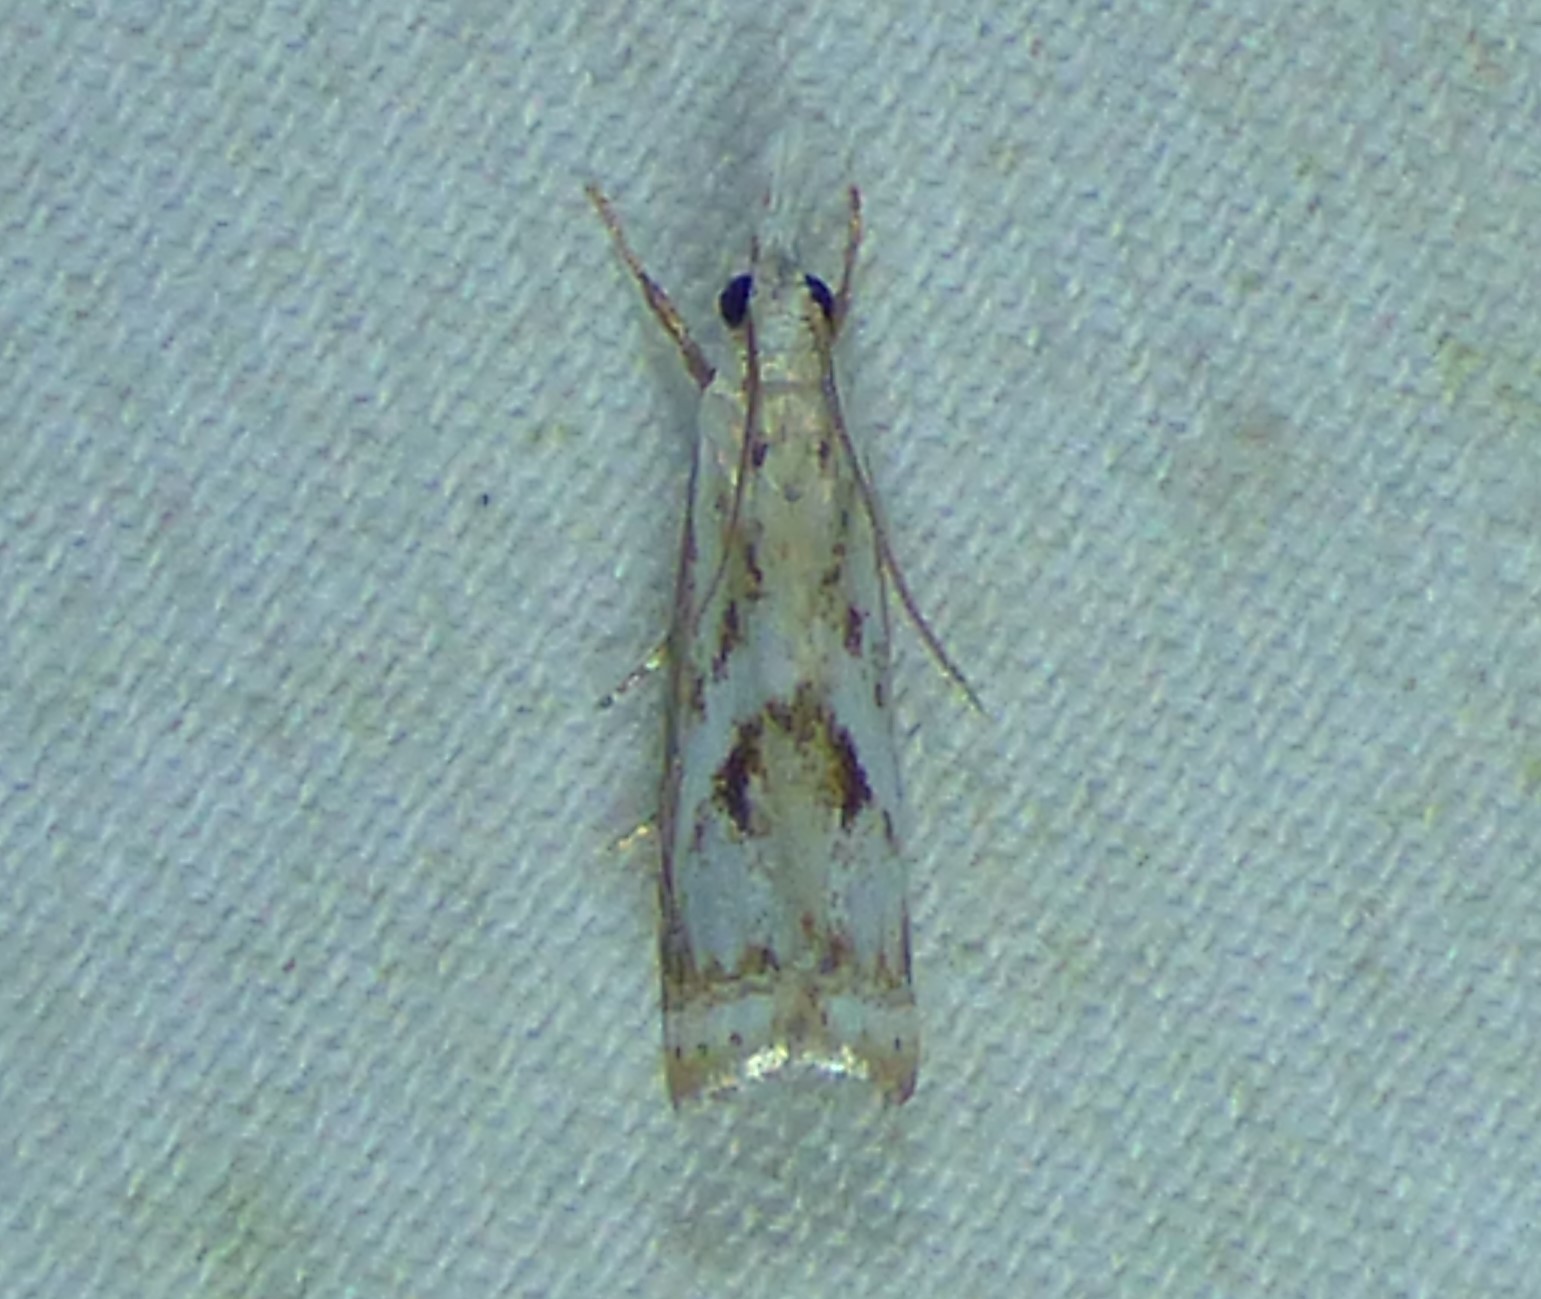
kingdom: Animalia
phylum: Arthropoda
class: Insecta
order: Lepidoptera
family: Crambidae
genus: Microcrambus
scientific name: Microcrambus elegans
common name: Elegant grass-veneer
